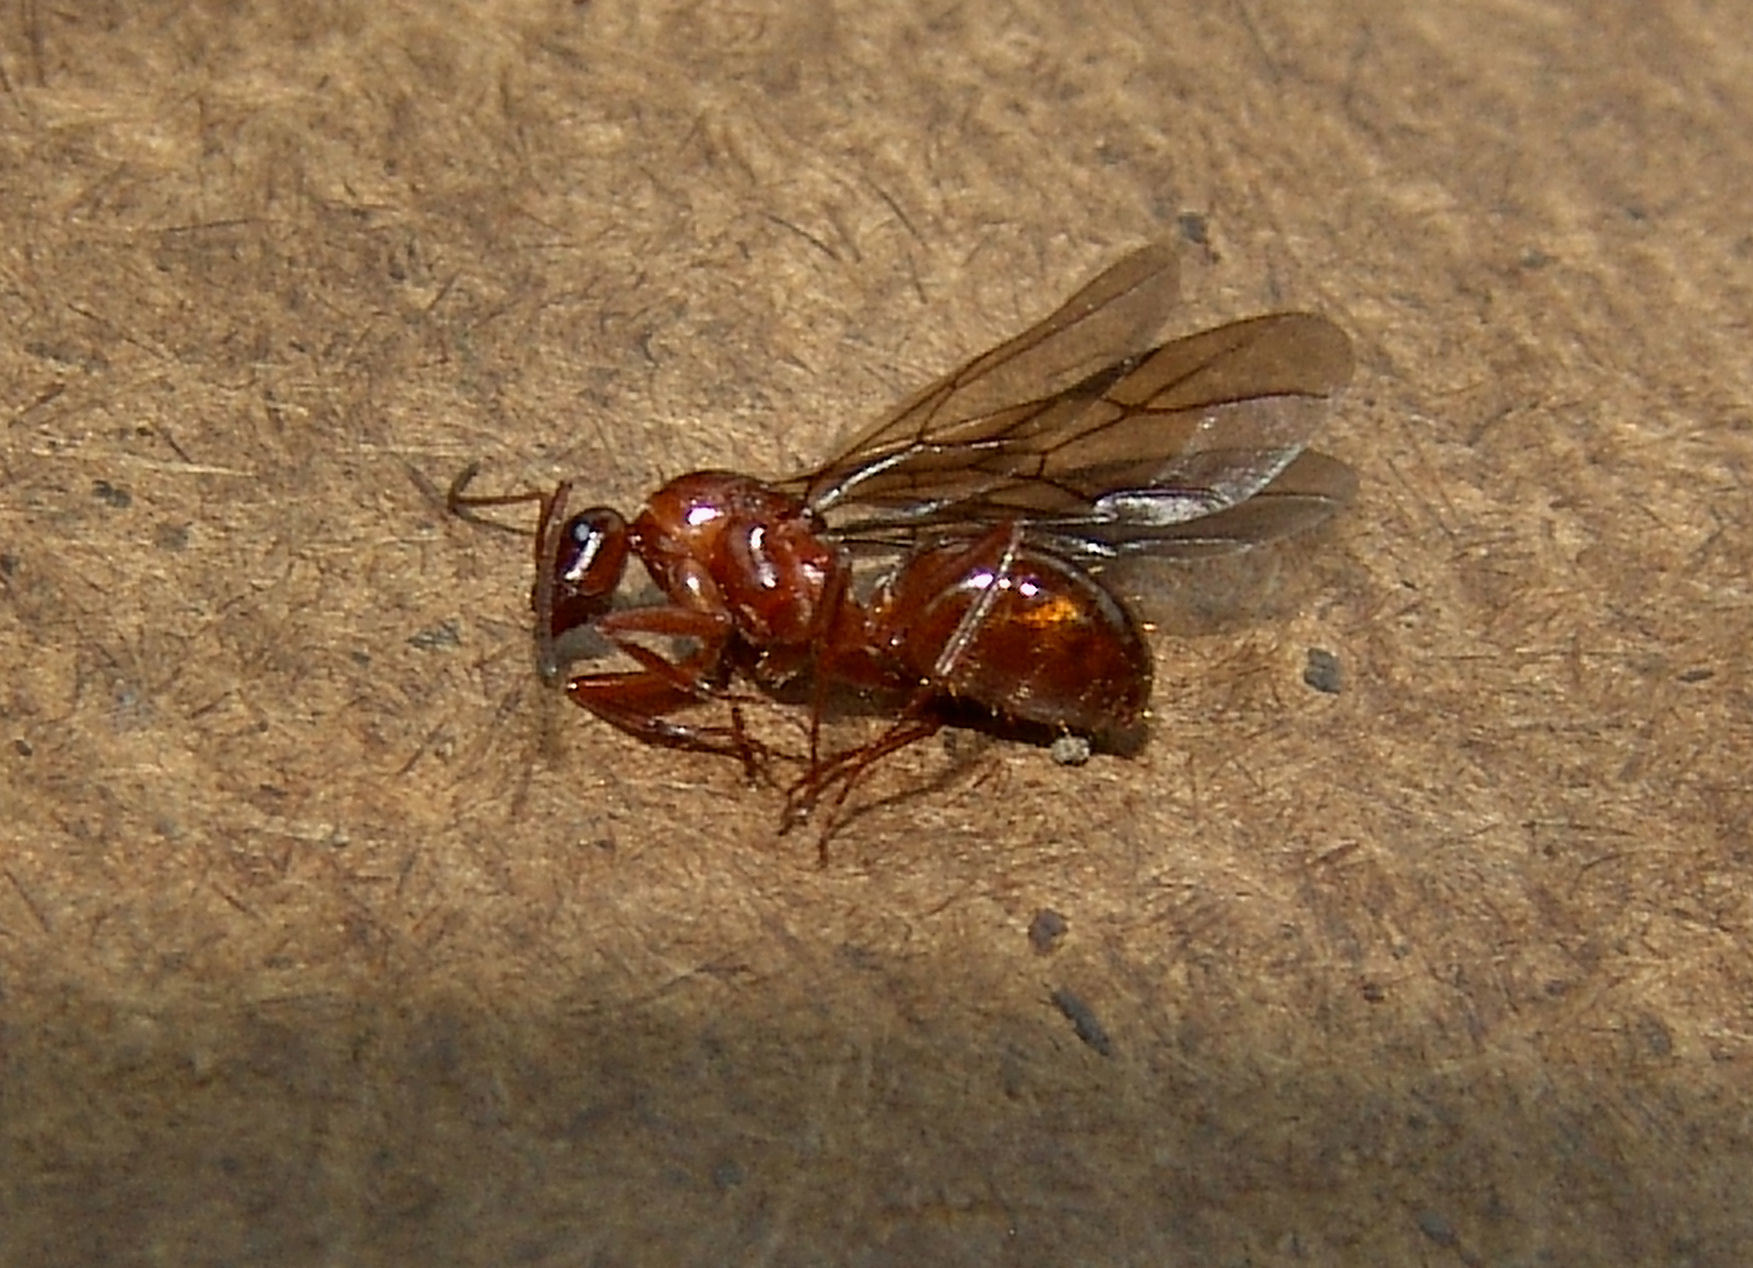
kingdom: Animalia
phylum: Arthropoda
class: Insecta
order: Hymenoptera
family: Formicidae
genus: Formica
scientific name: Formica biophilica
